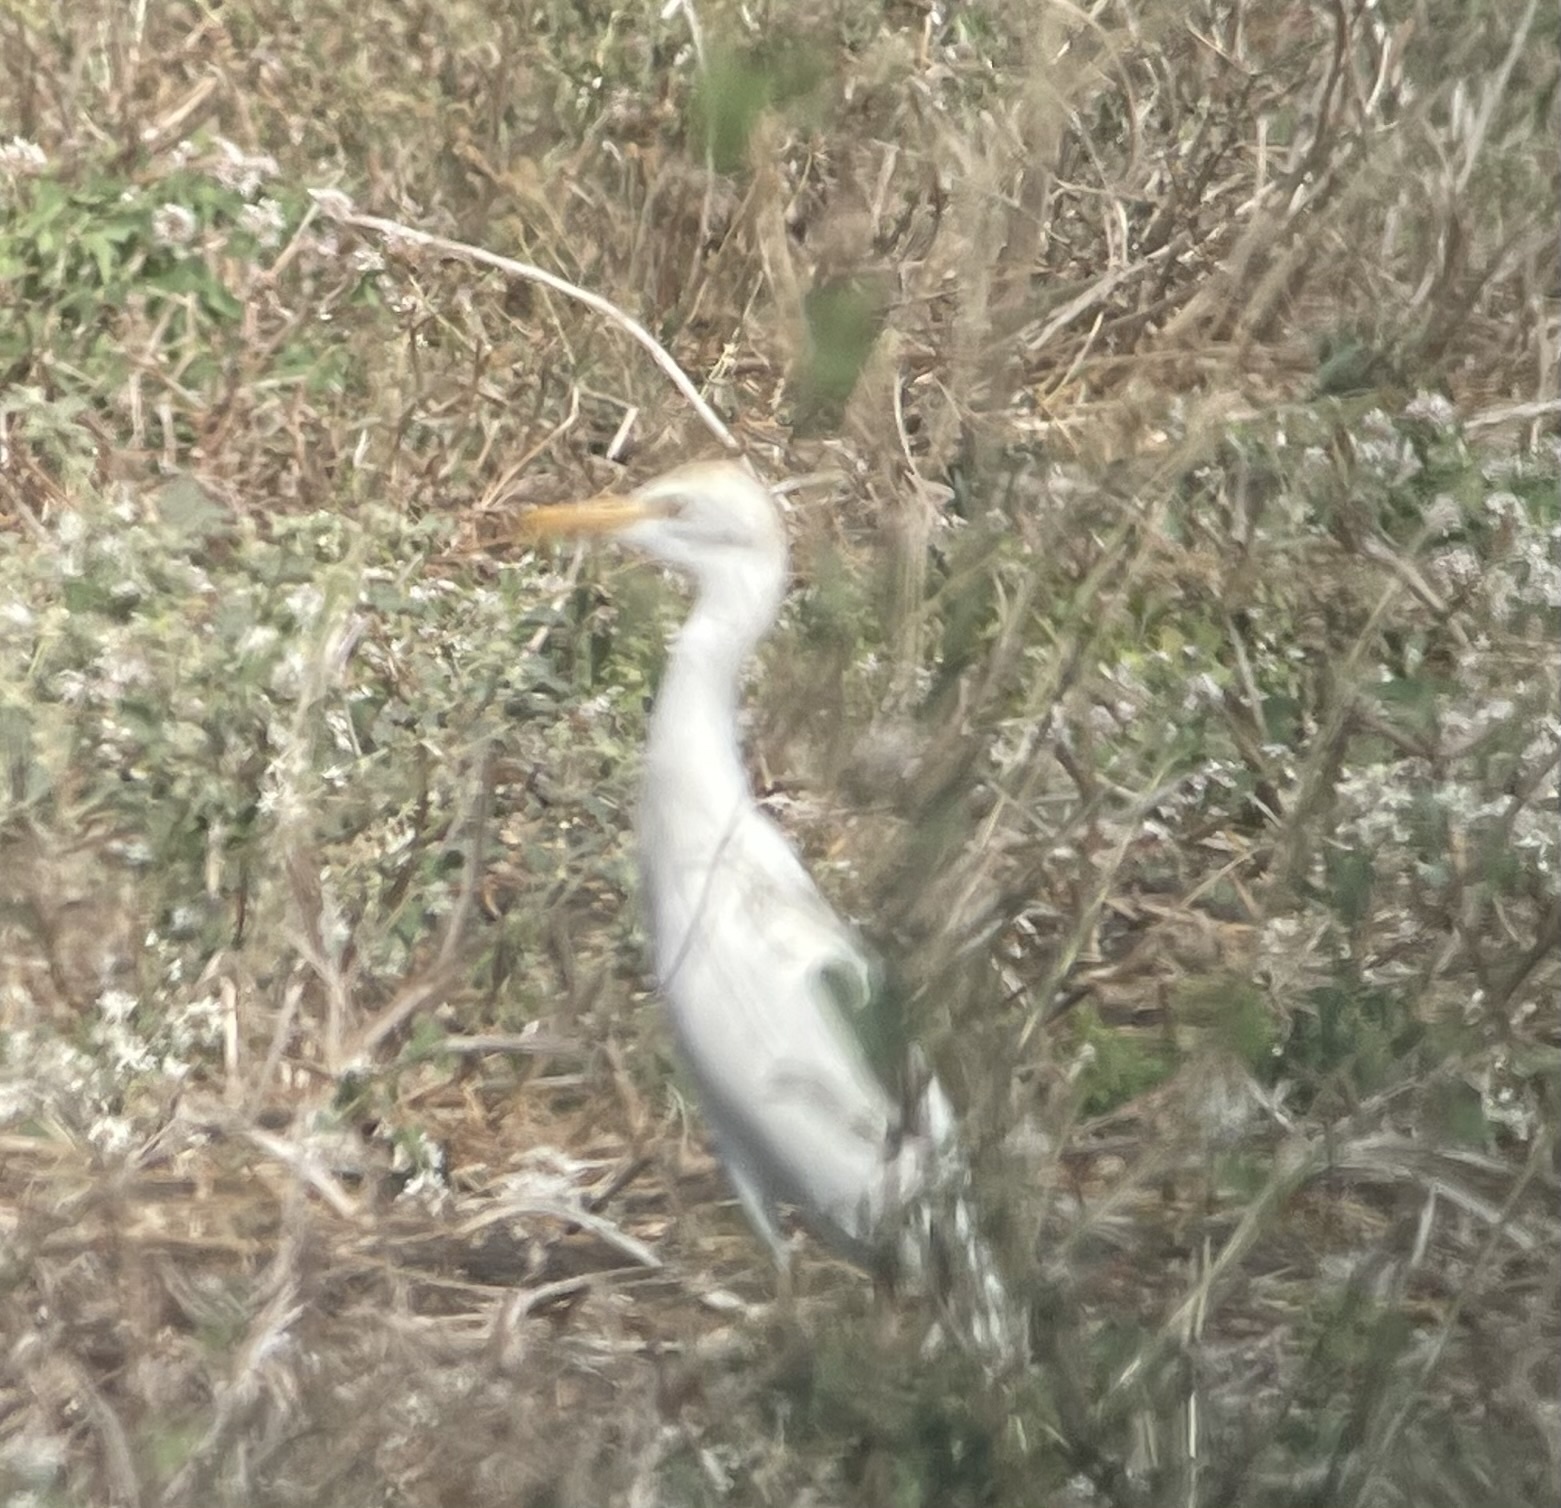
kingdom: Animalia
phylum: Chordata
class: Aves
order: Pelecaniformes
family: Ardeidae
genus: Bubulcus
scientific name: Bubulcus ibis
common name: Cattle egret
